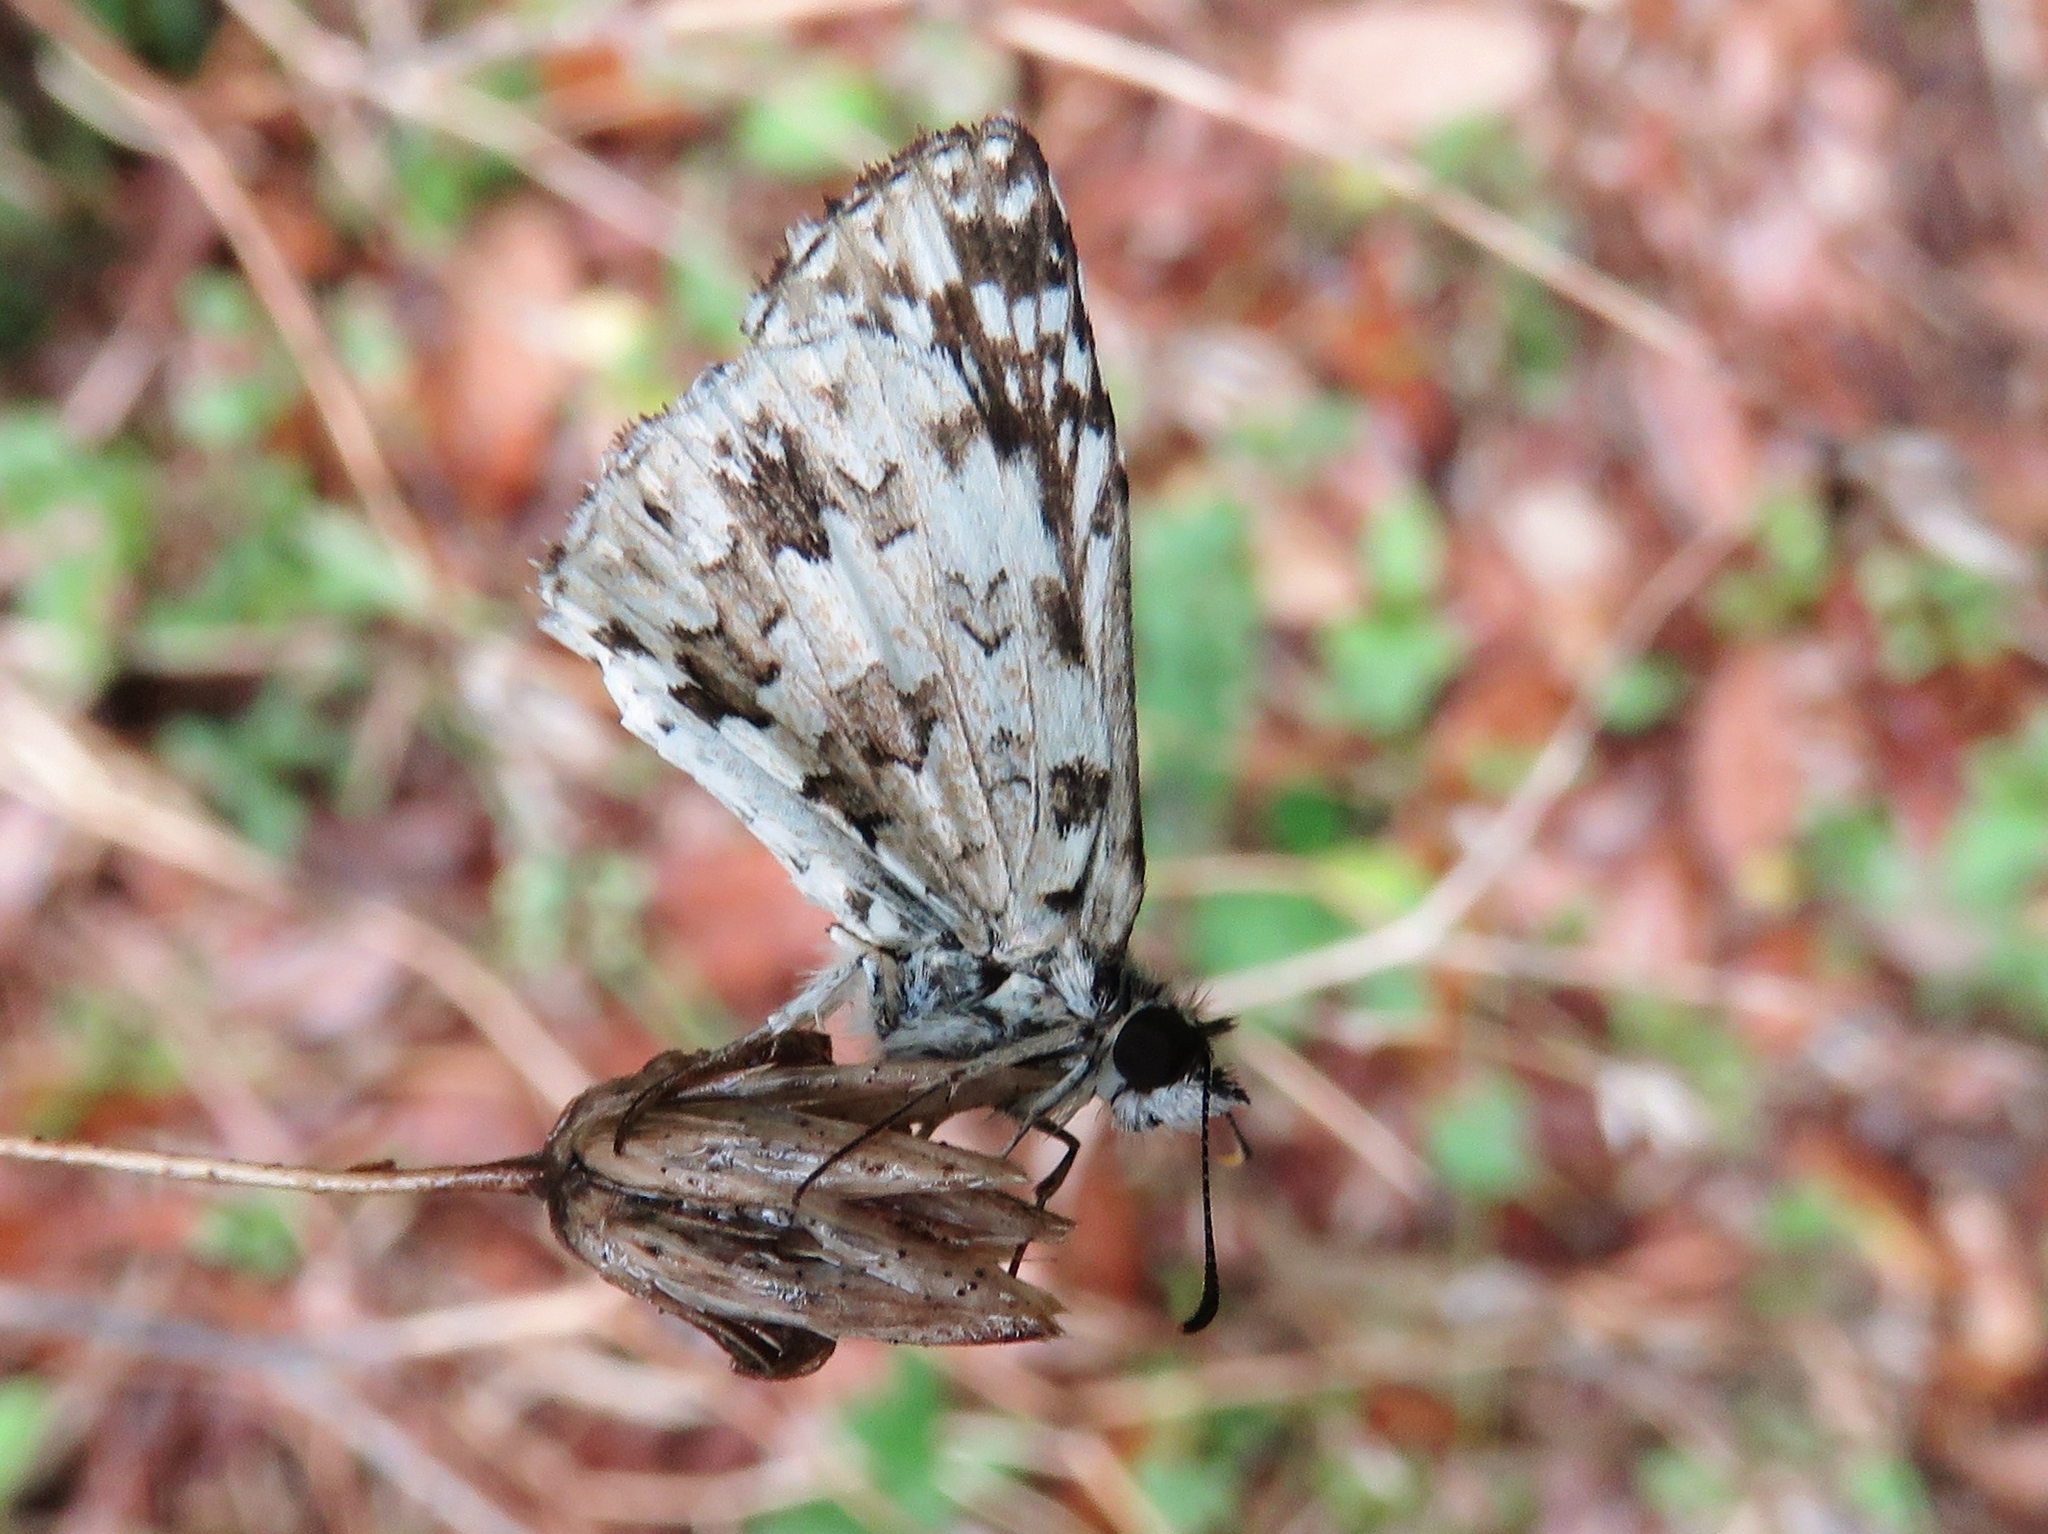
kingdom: Animalia
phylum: Arthropoda
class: Insecta
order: Lepidoptera
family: Hesperiidae
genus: Pyrgus
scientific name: Pyrgus oileus
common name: Tropical checkered-skipper
